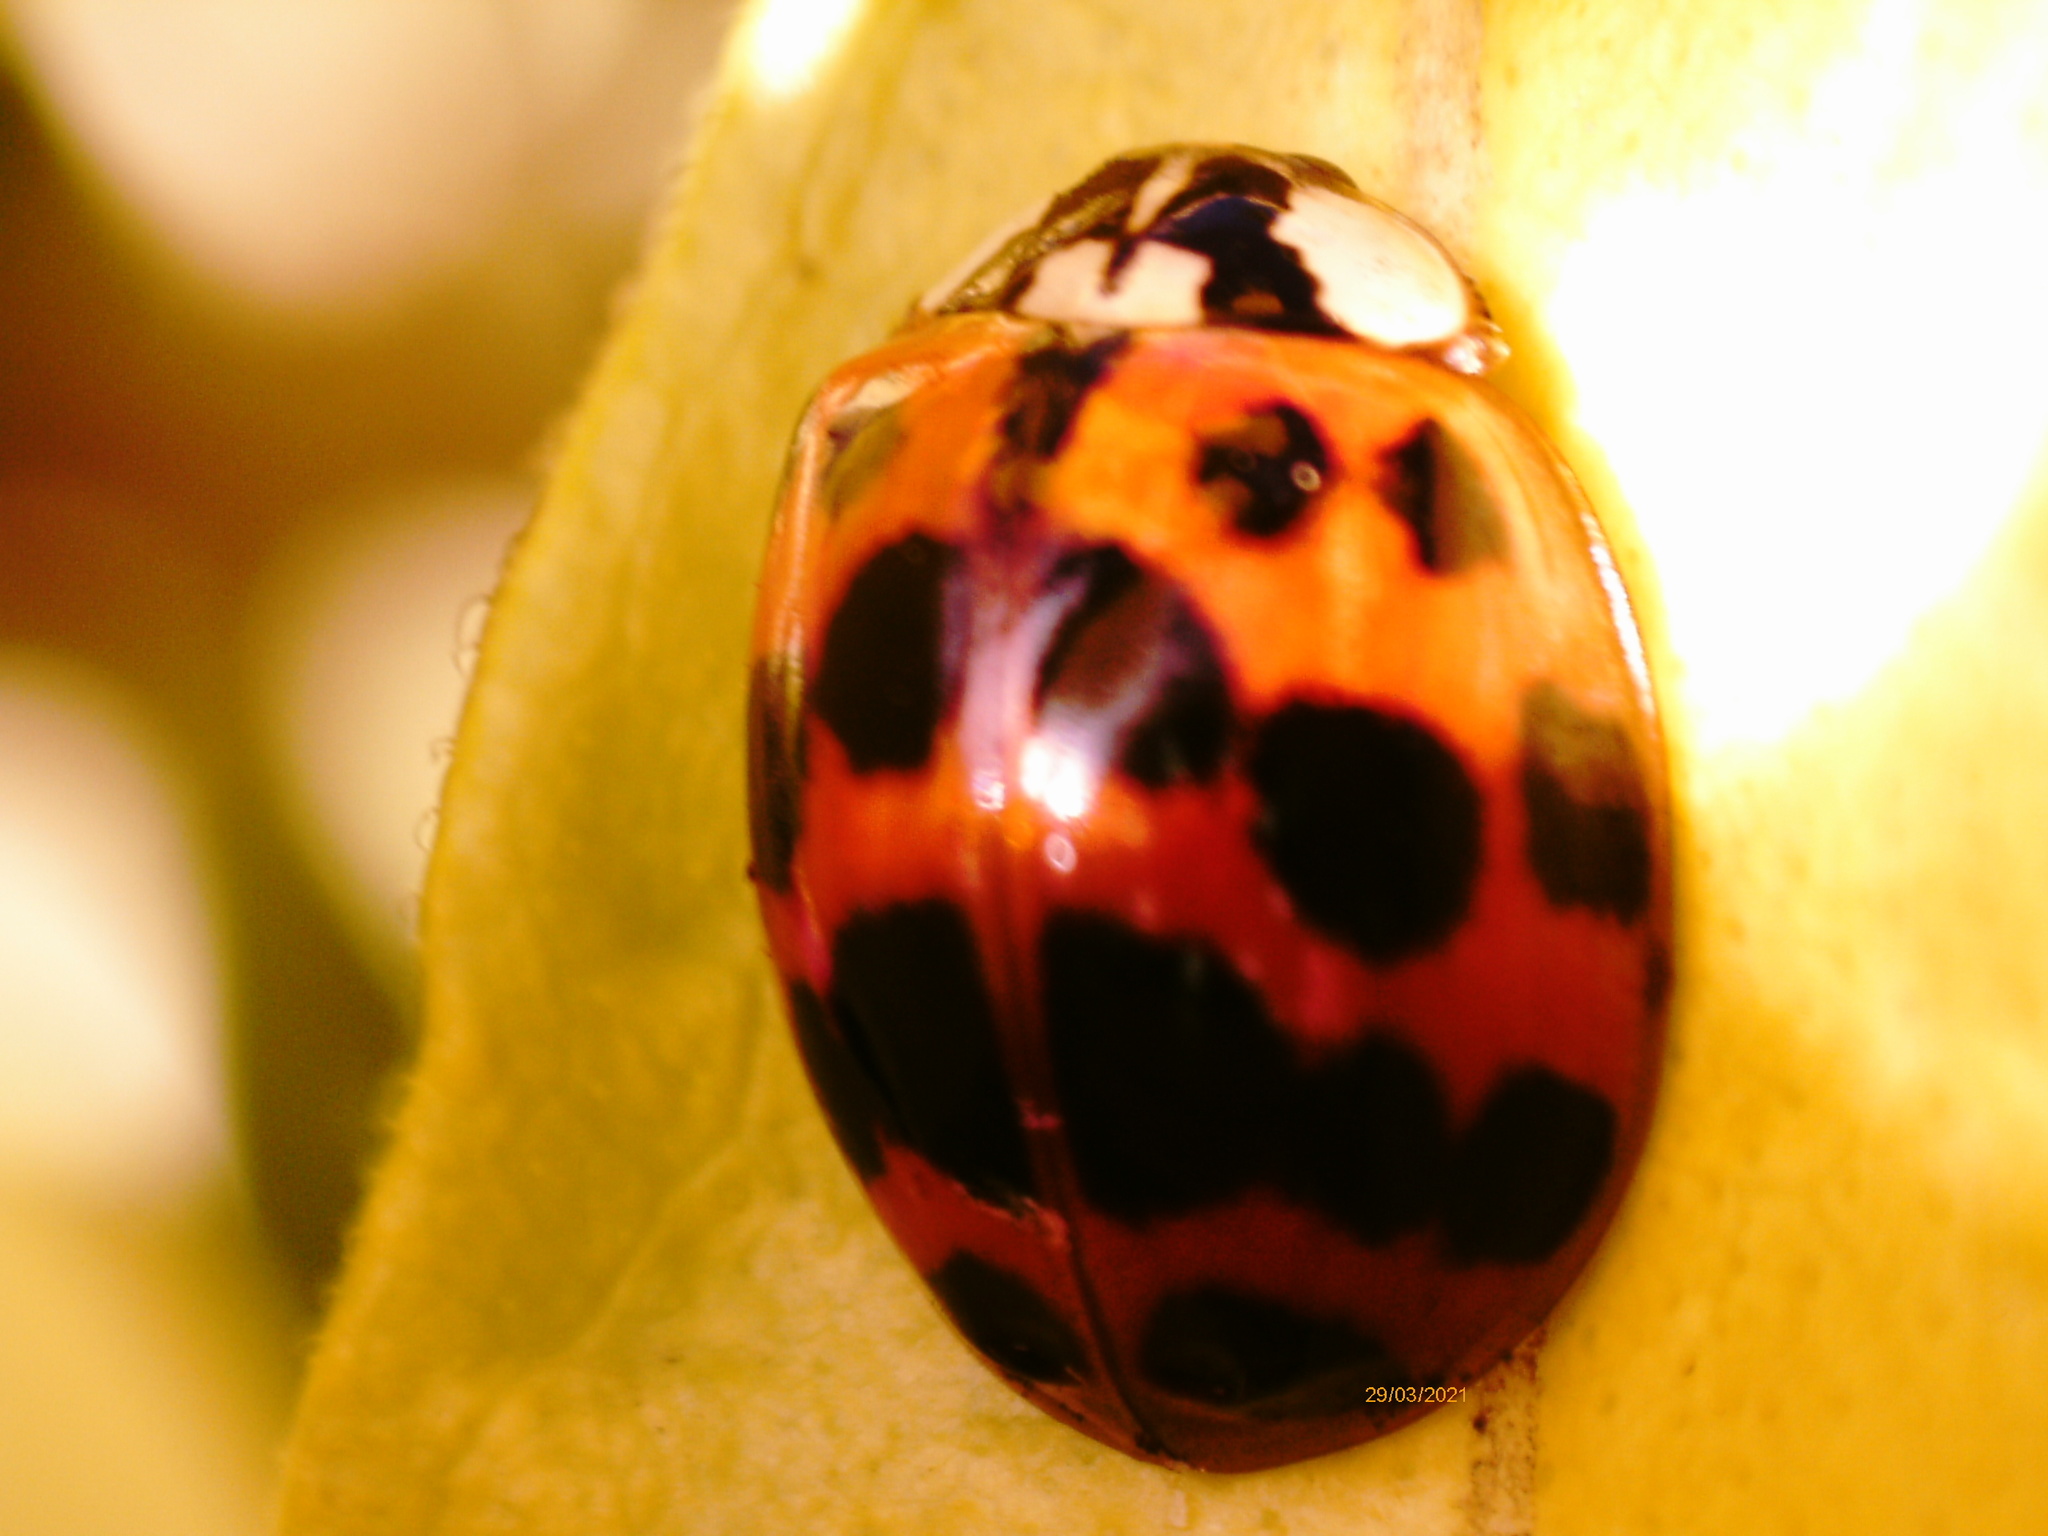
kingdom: Animalia
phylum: Arthropoda
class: Insecta
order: Coleoptera
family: Coccinellidae
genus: Harmonia
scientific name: Harmonia axyridis
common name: Harlequin ladybird
